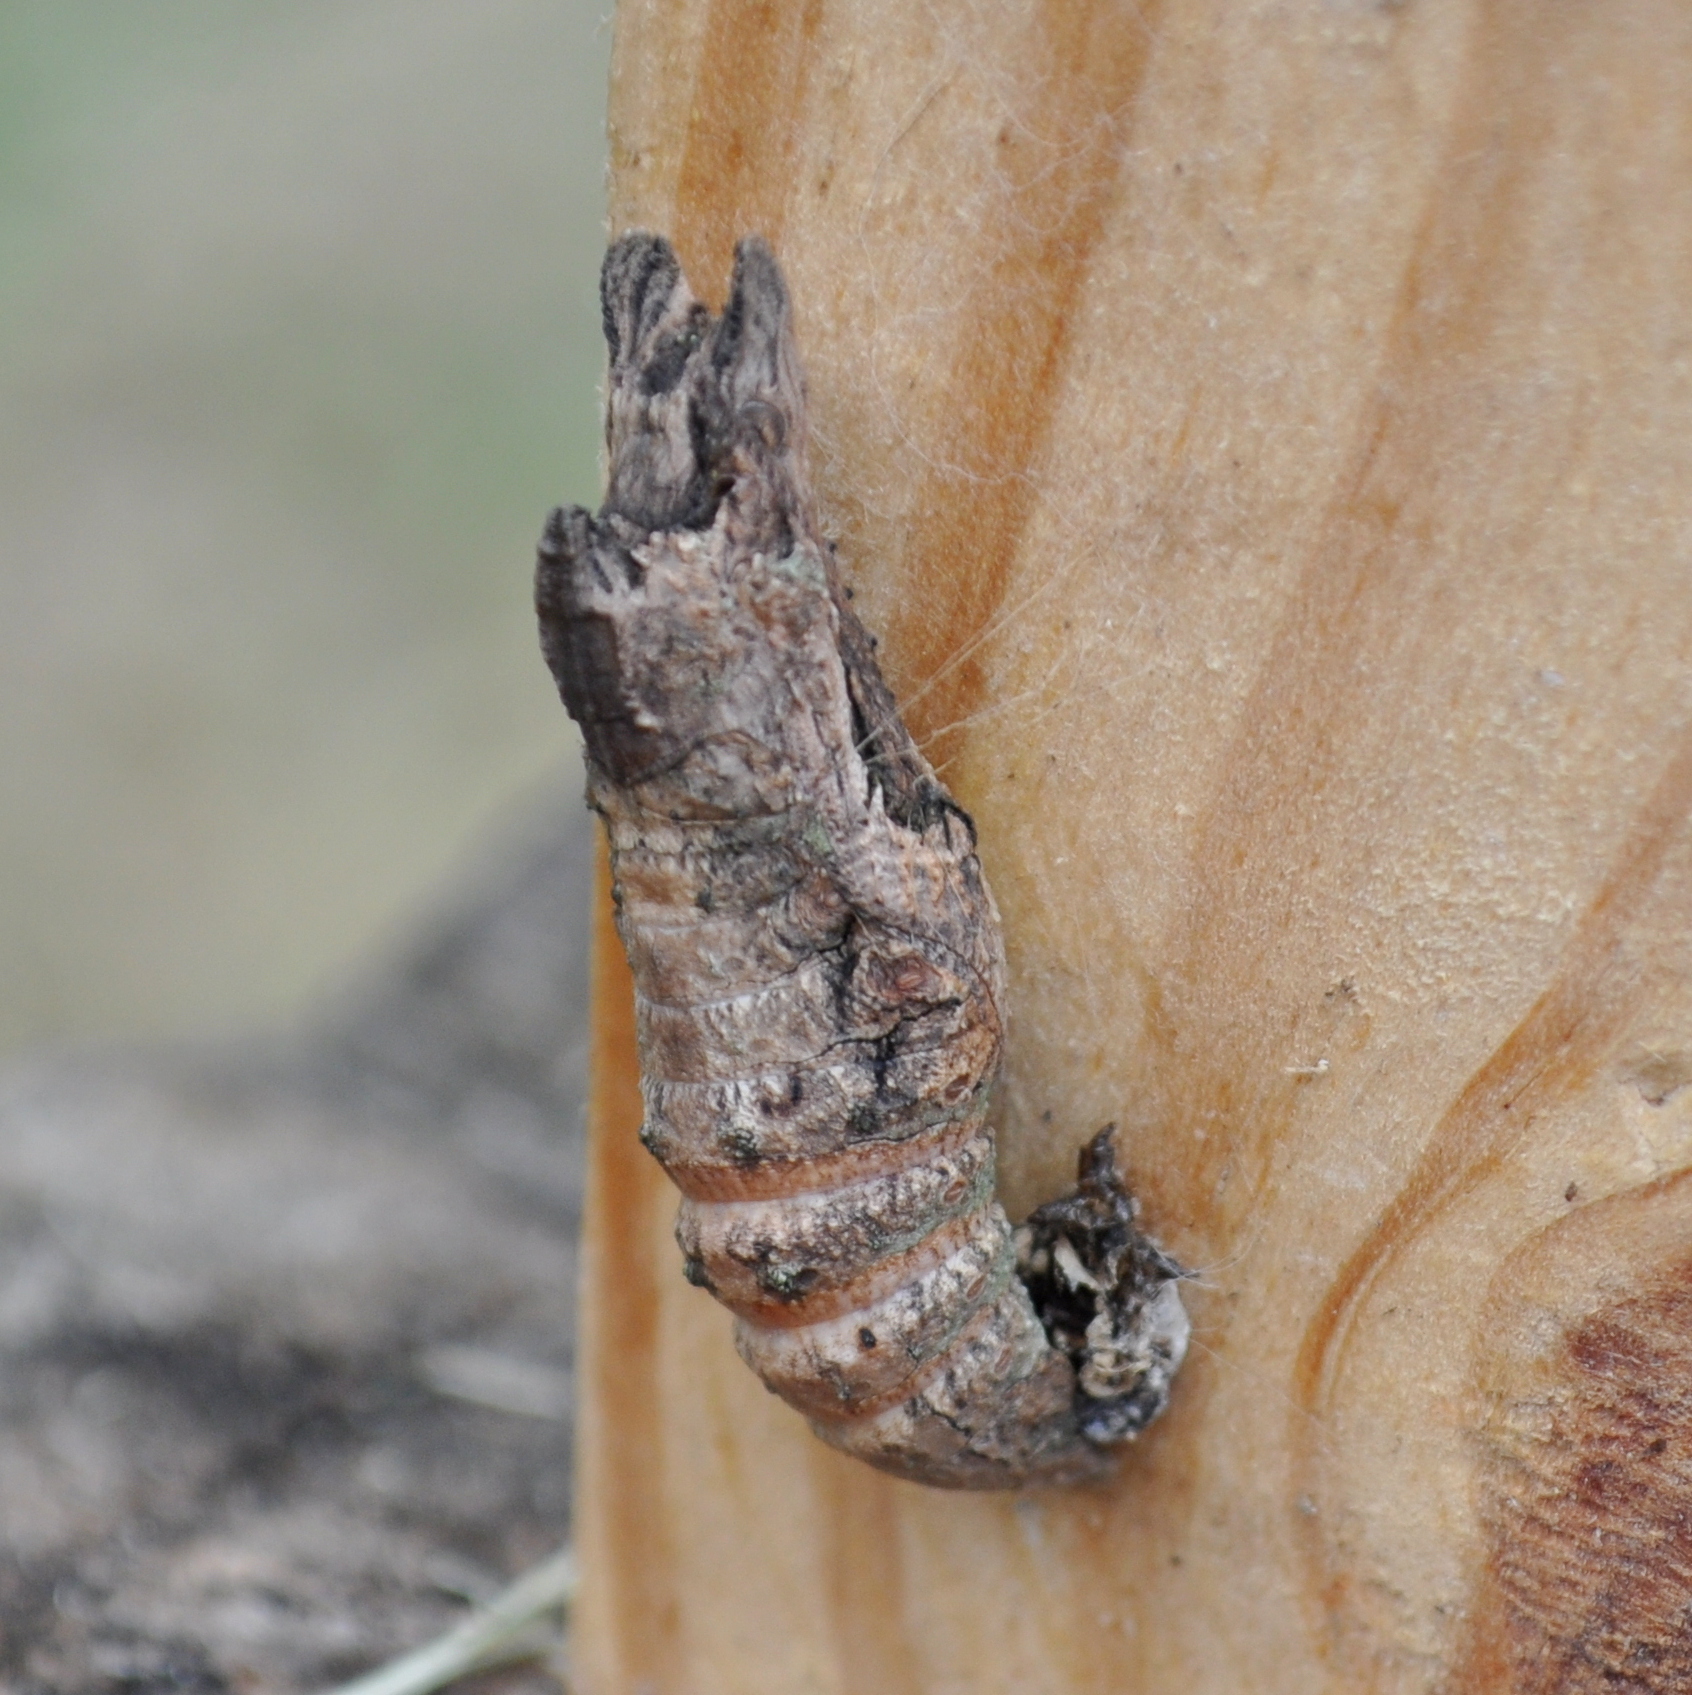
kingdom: Animalia
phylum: Arthropoda
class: Insecta
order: Lepidoptera
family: Papilionidae
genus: Papilio
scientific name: Papilio thoas
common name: King swallowtail
